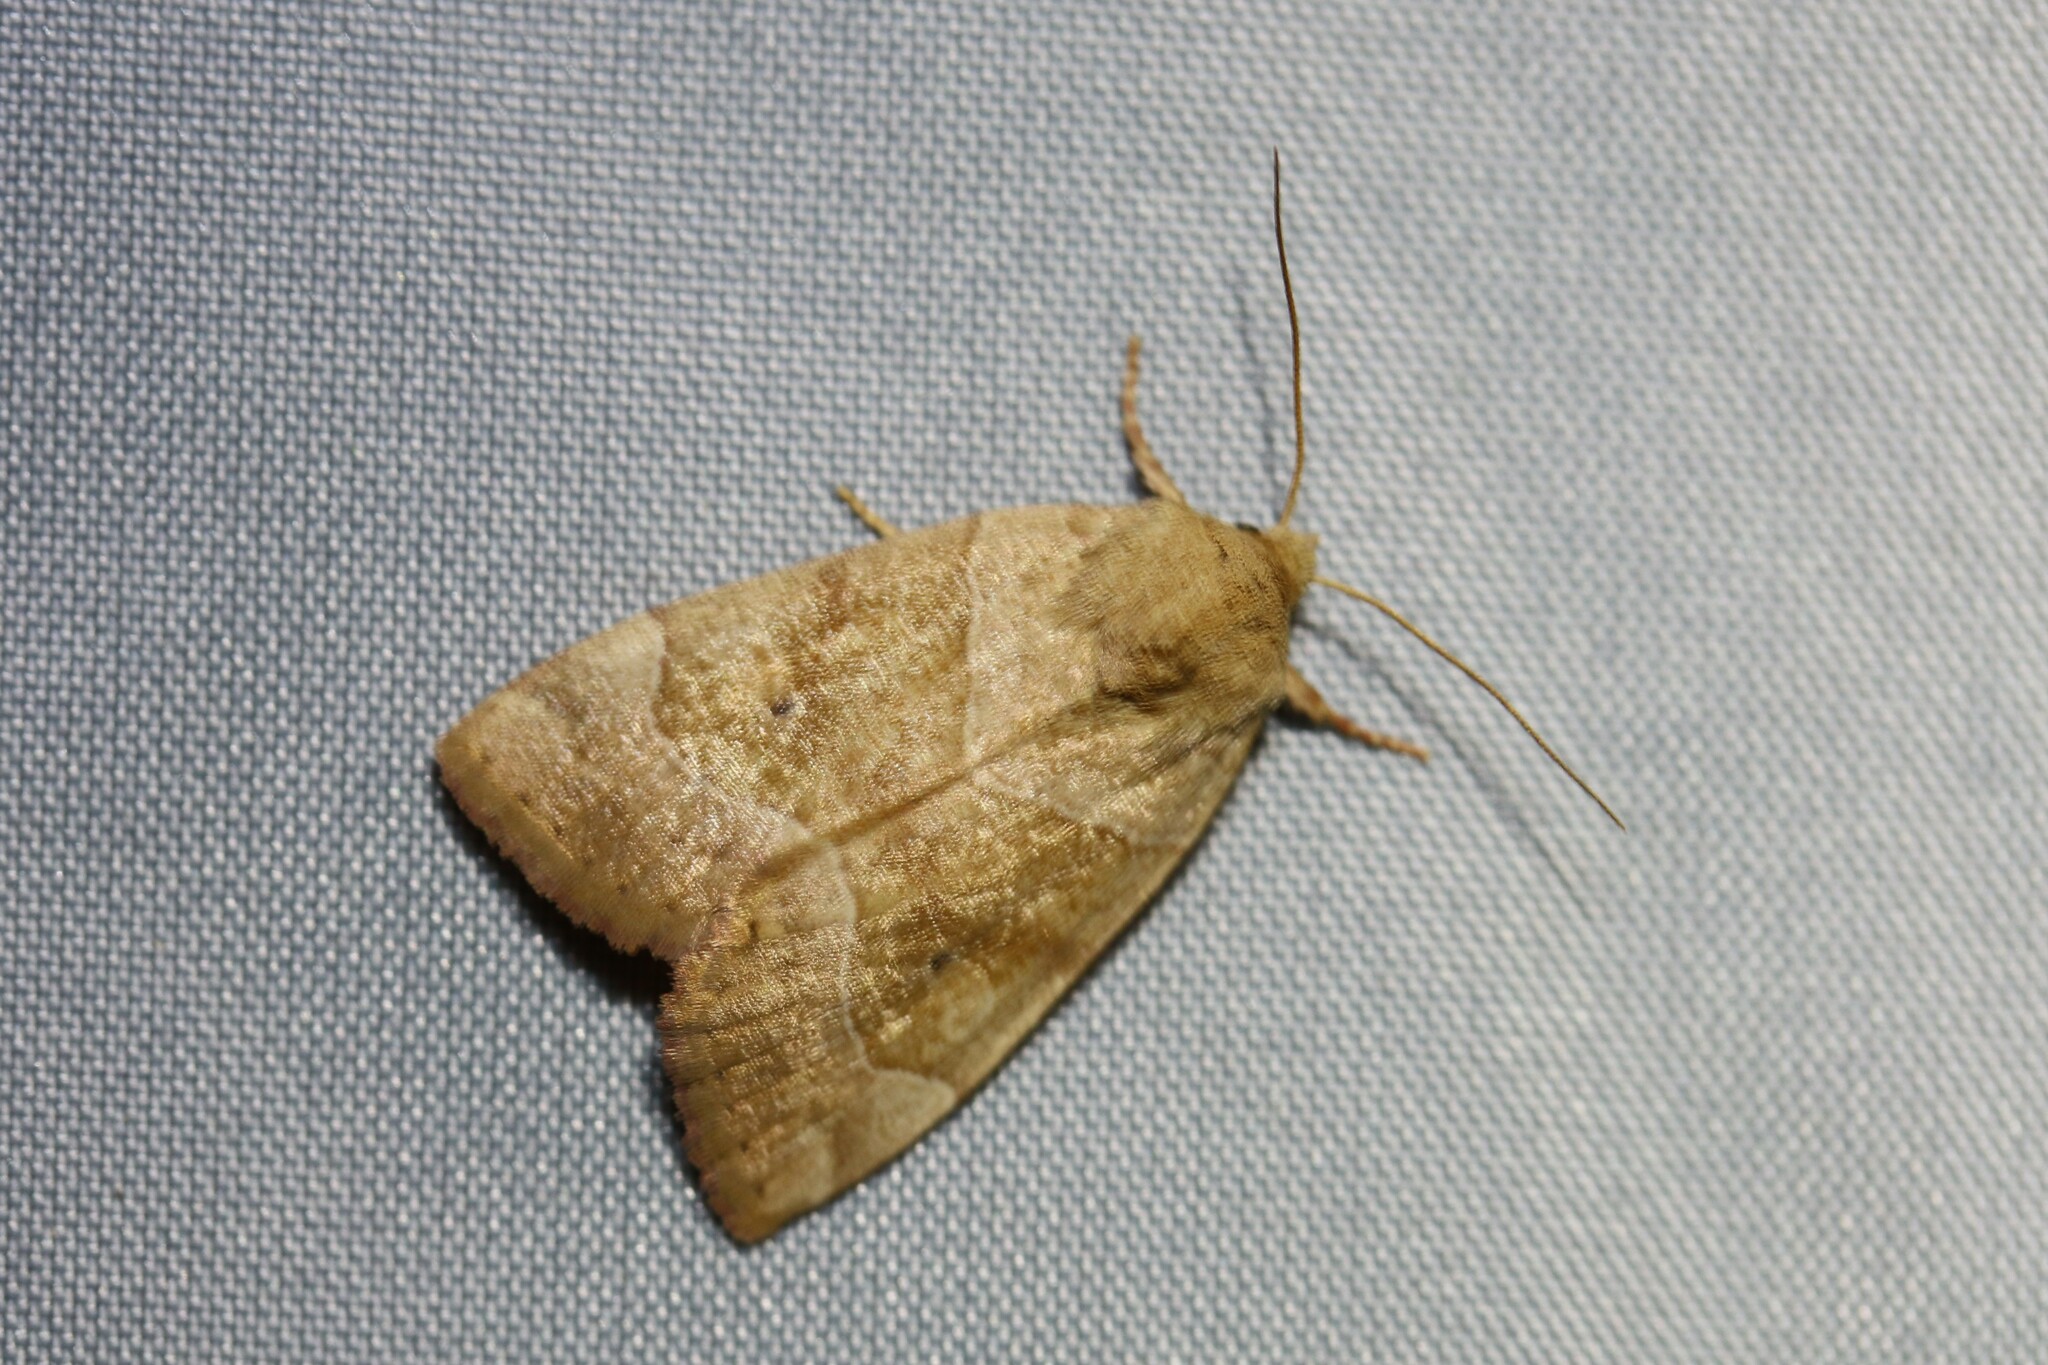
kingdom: Animalia
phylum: Arthropoda
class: Insecta
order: Lepidoptera
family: Noctuidae
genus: Cosmia
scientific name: Cosmia trapezina
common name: Dun-bar
